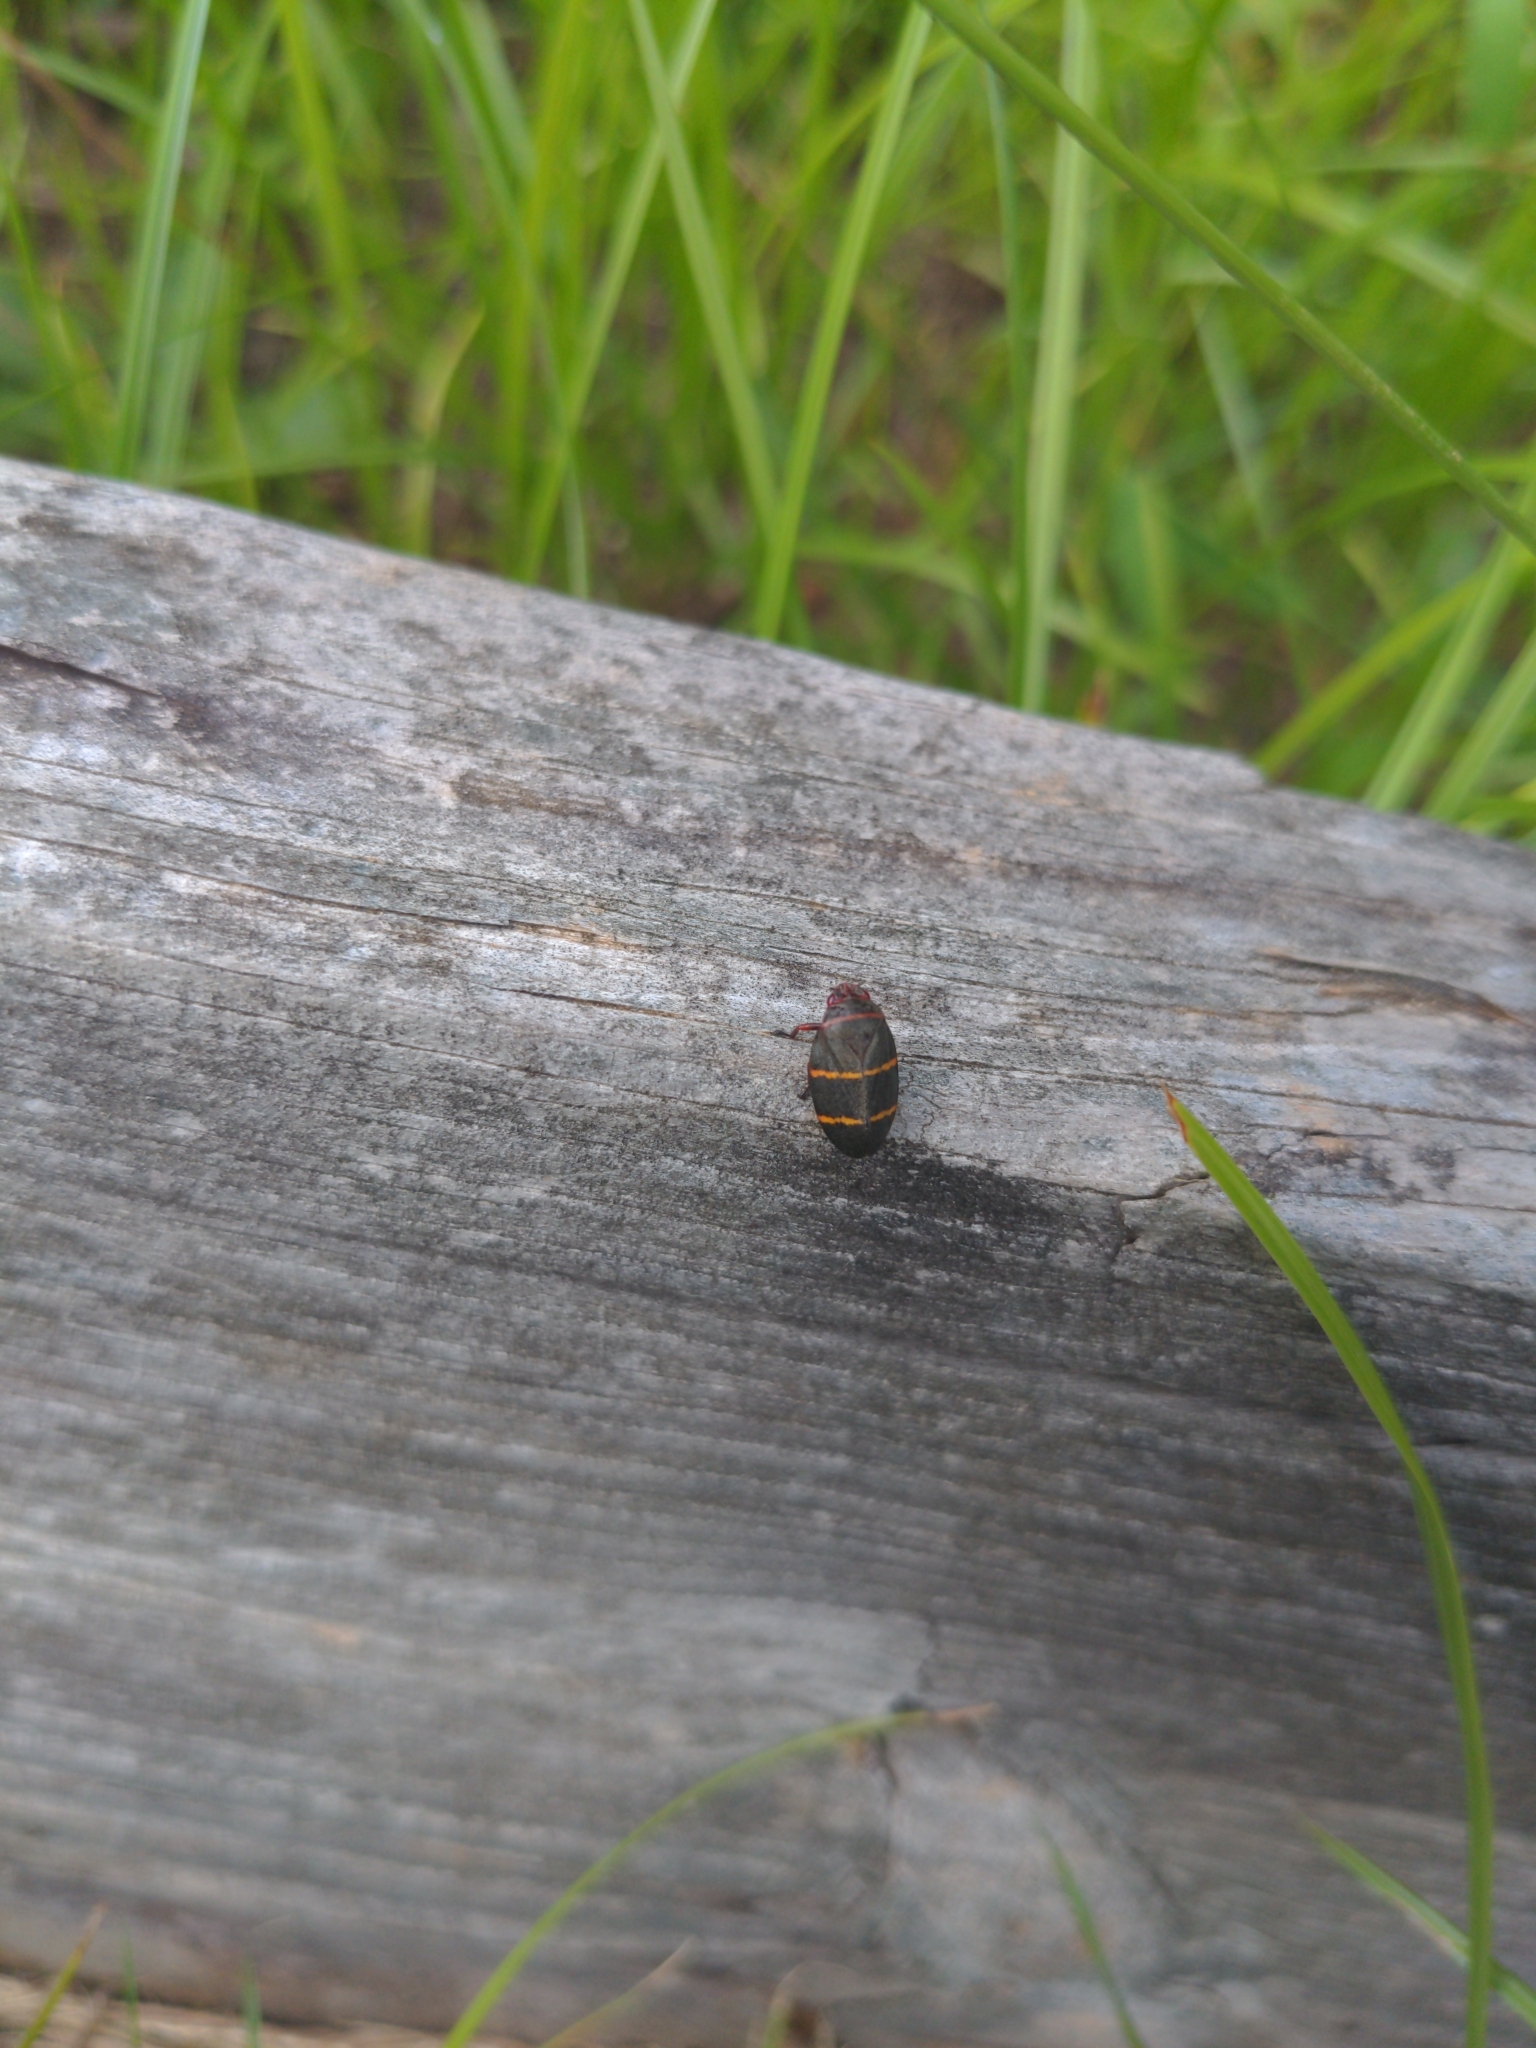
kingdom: Animalia
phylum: Arthropoda
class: Insecta
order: Hemiptera
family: Cercopidae
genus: Prosapia
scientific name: Prosapia bicincta
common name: Twolined spittlebug
